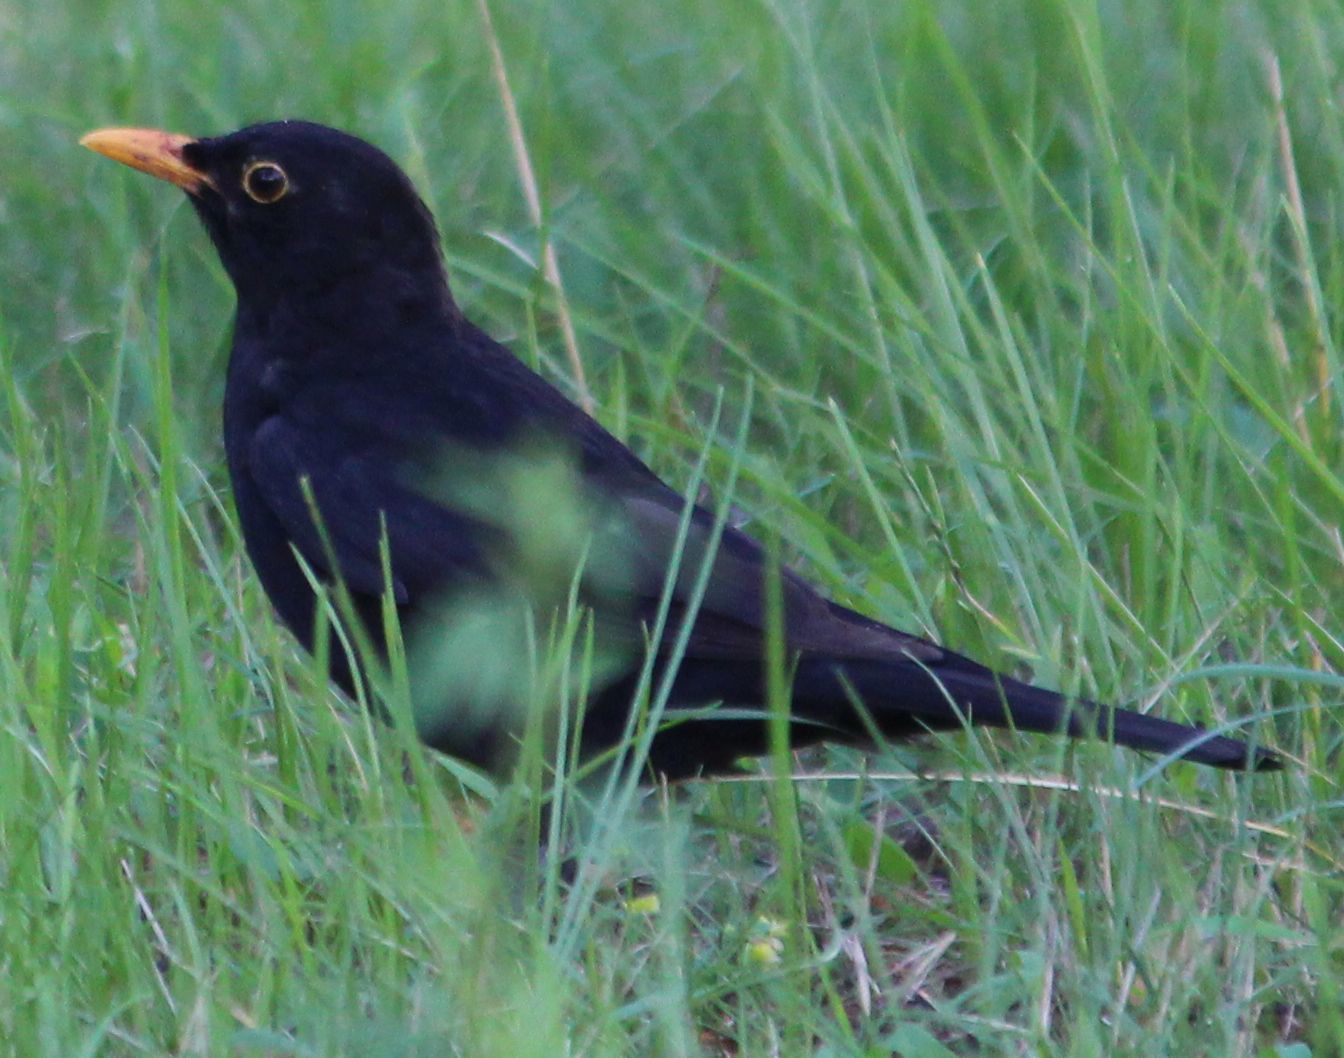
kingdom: Animalia
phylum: Chordata
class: Aves
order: Passeriformes
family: Turdidae
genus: Turdus
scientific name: Turdus merula
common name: Common blackbird
